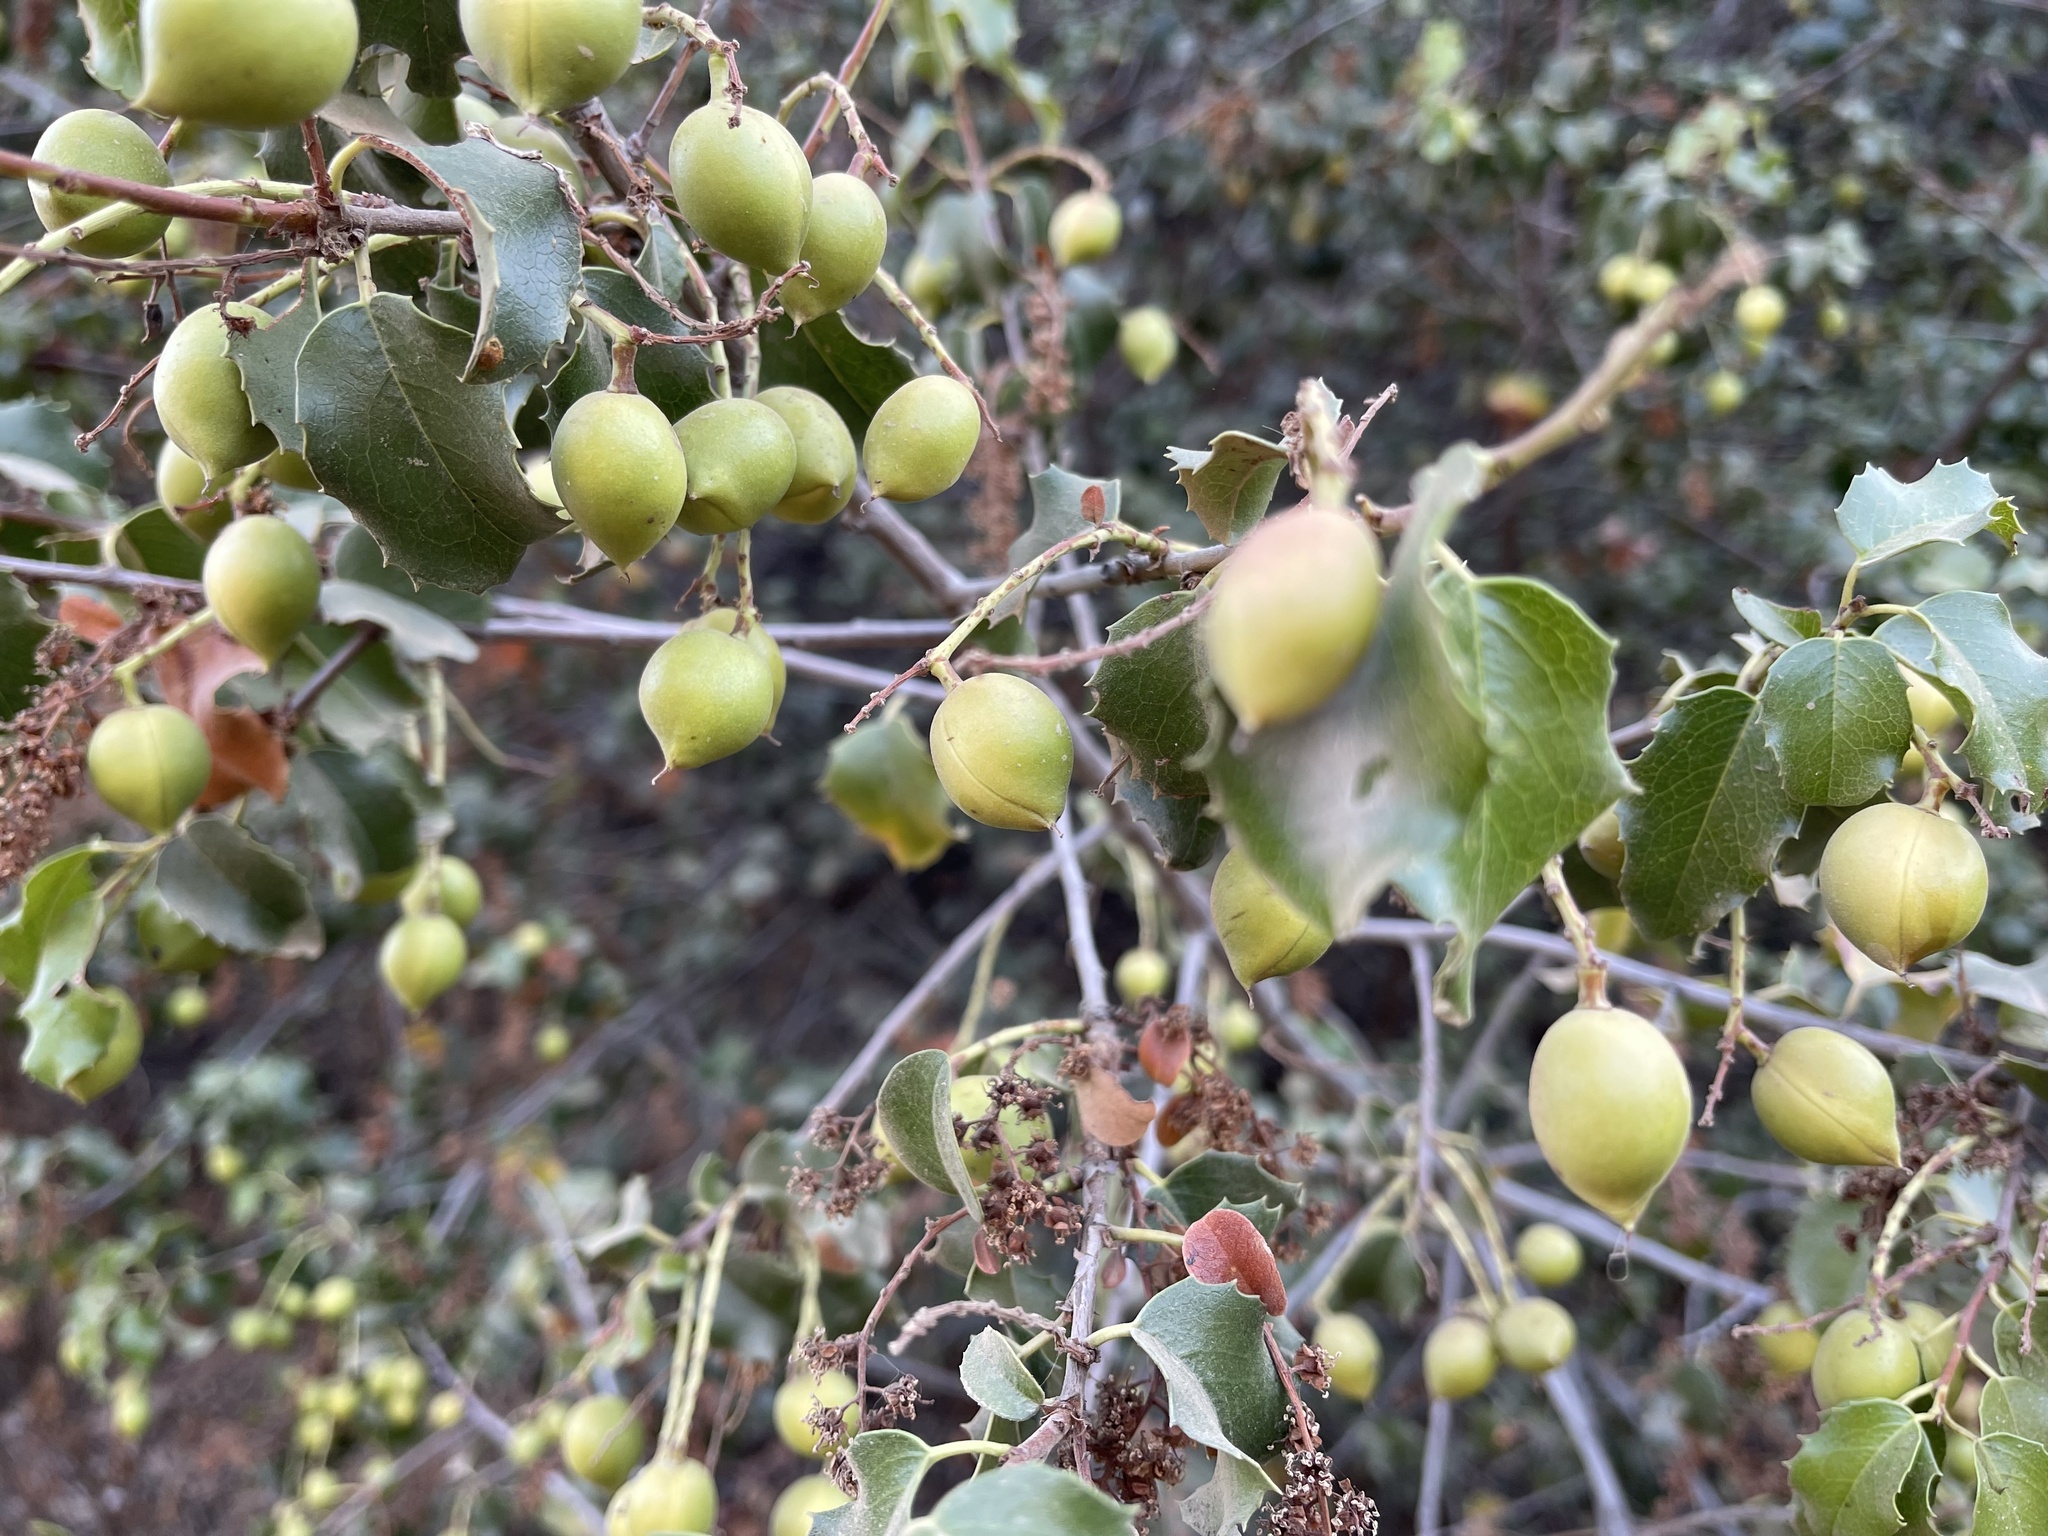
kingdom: Plantae
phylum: Tracheophyta
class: Magnoliopsida
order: Rosales
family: Rosaceae
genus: Prunus
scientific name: Prunus ilicifolia
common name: Hollyleaf cherry
